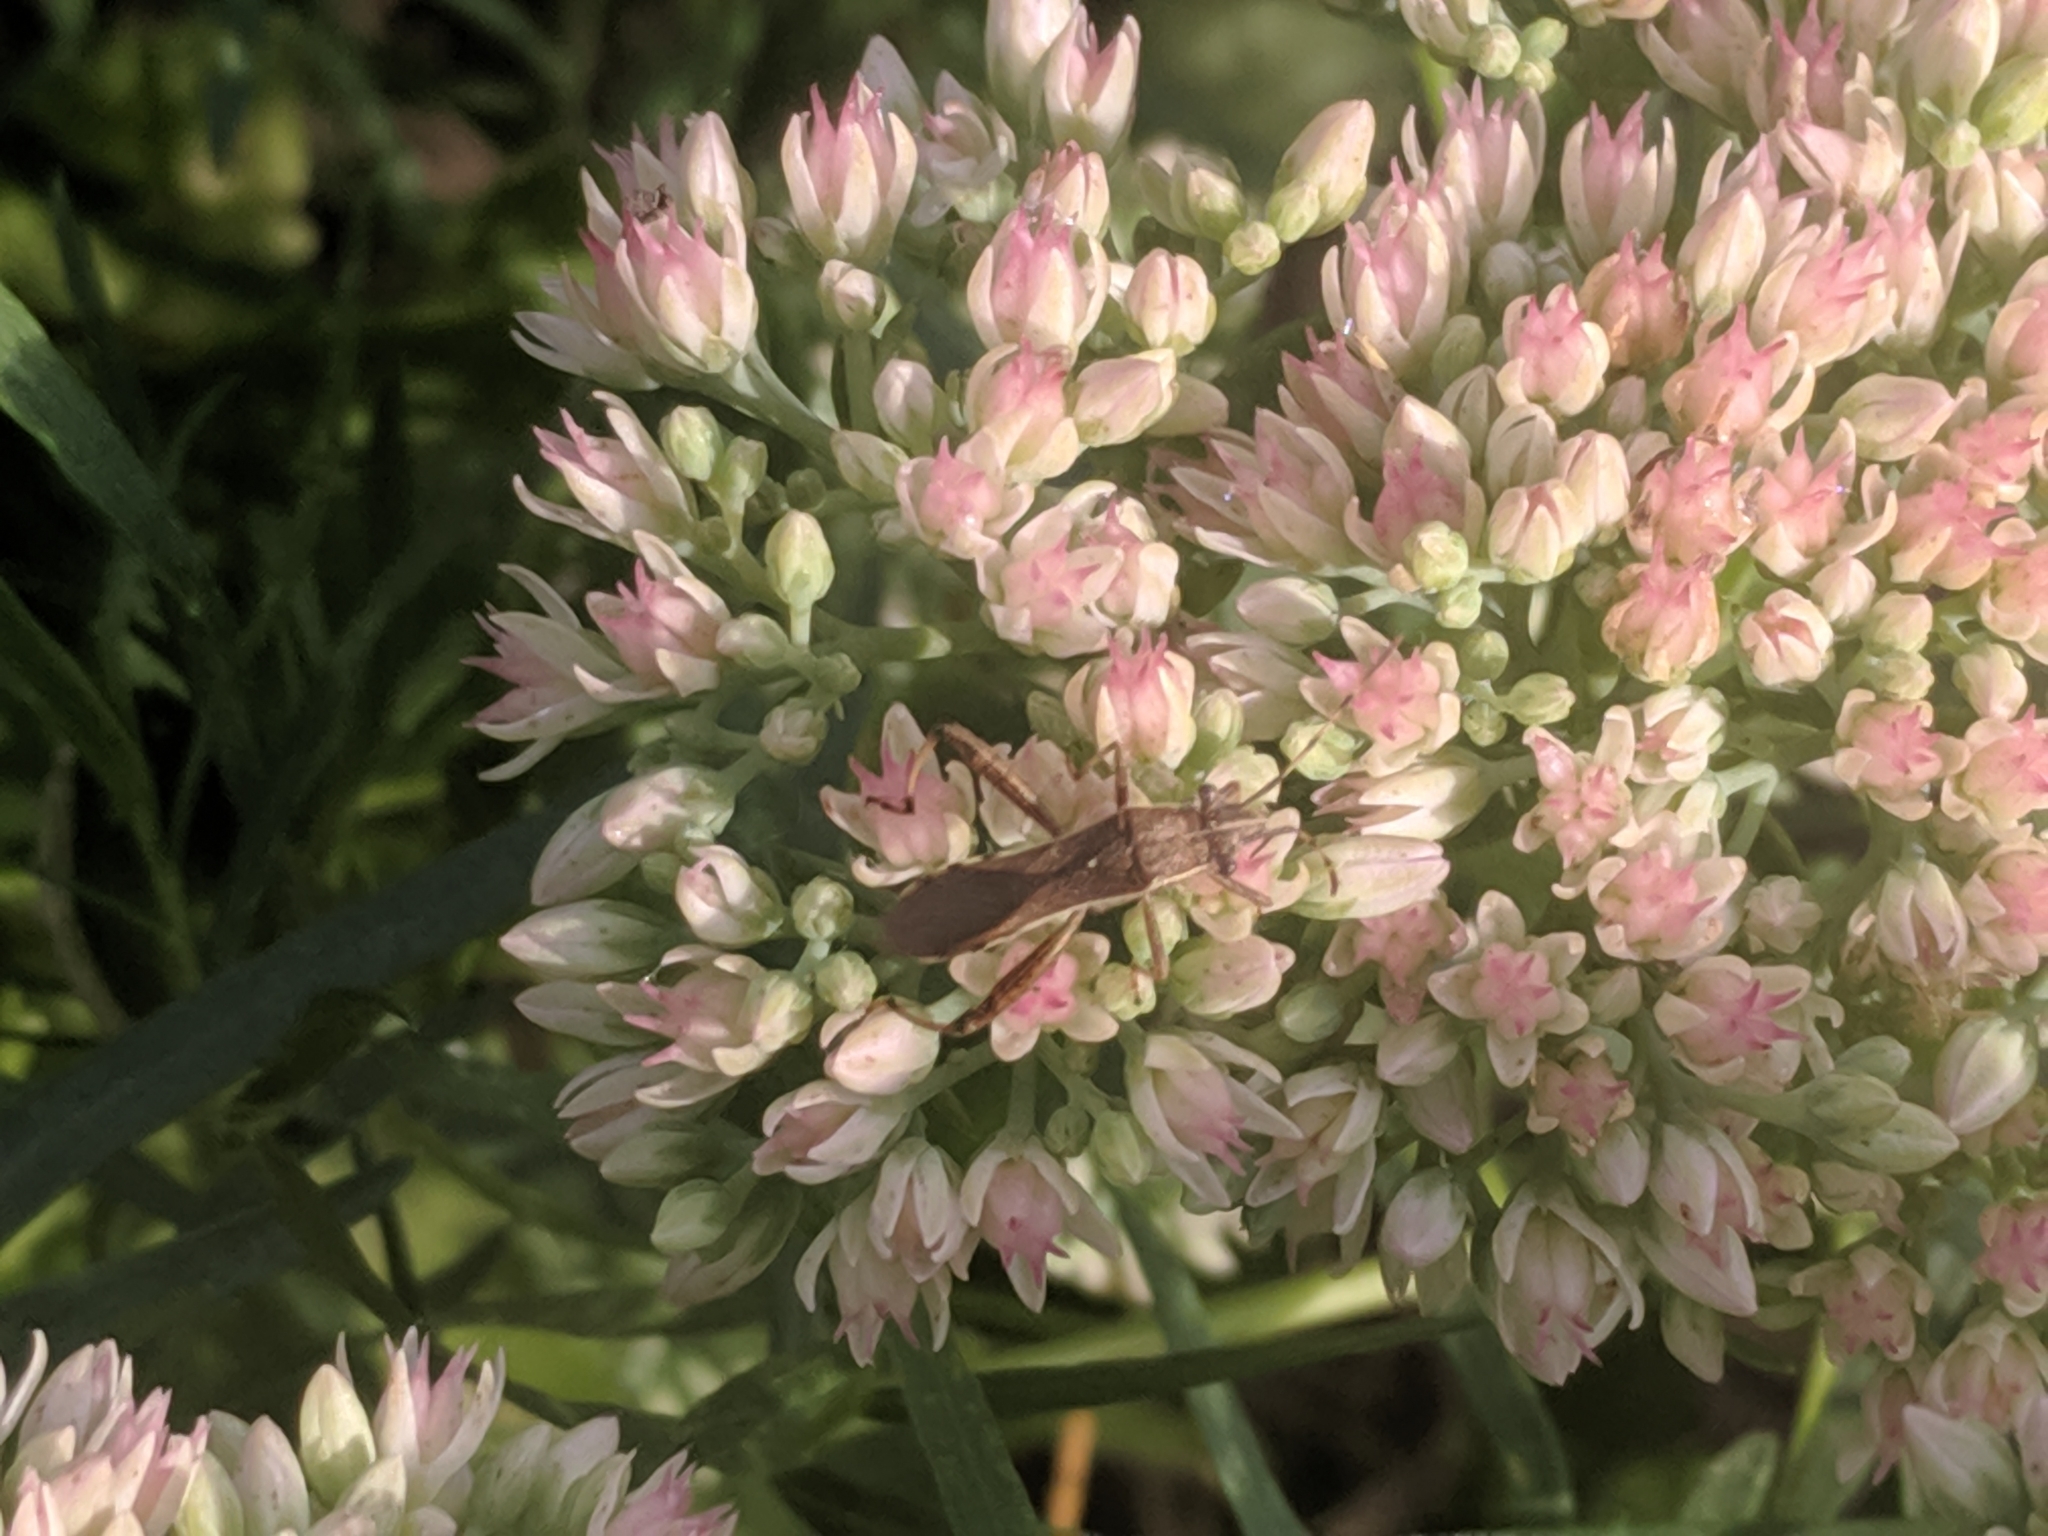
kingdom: Animalia
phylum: Arthropoda
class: Insecta
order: Hemiptera
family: Alydidae
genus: Camptopus
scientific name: Camptopus lateralis
